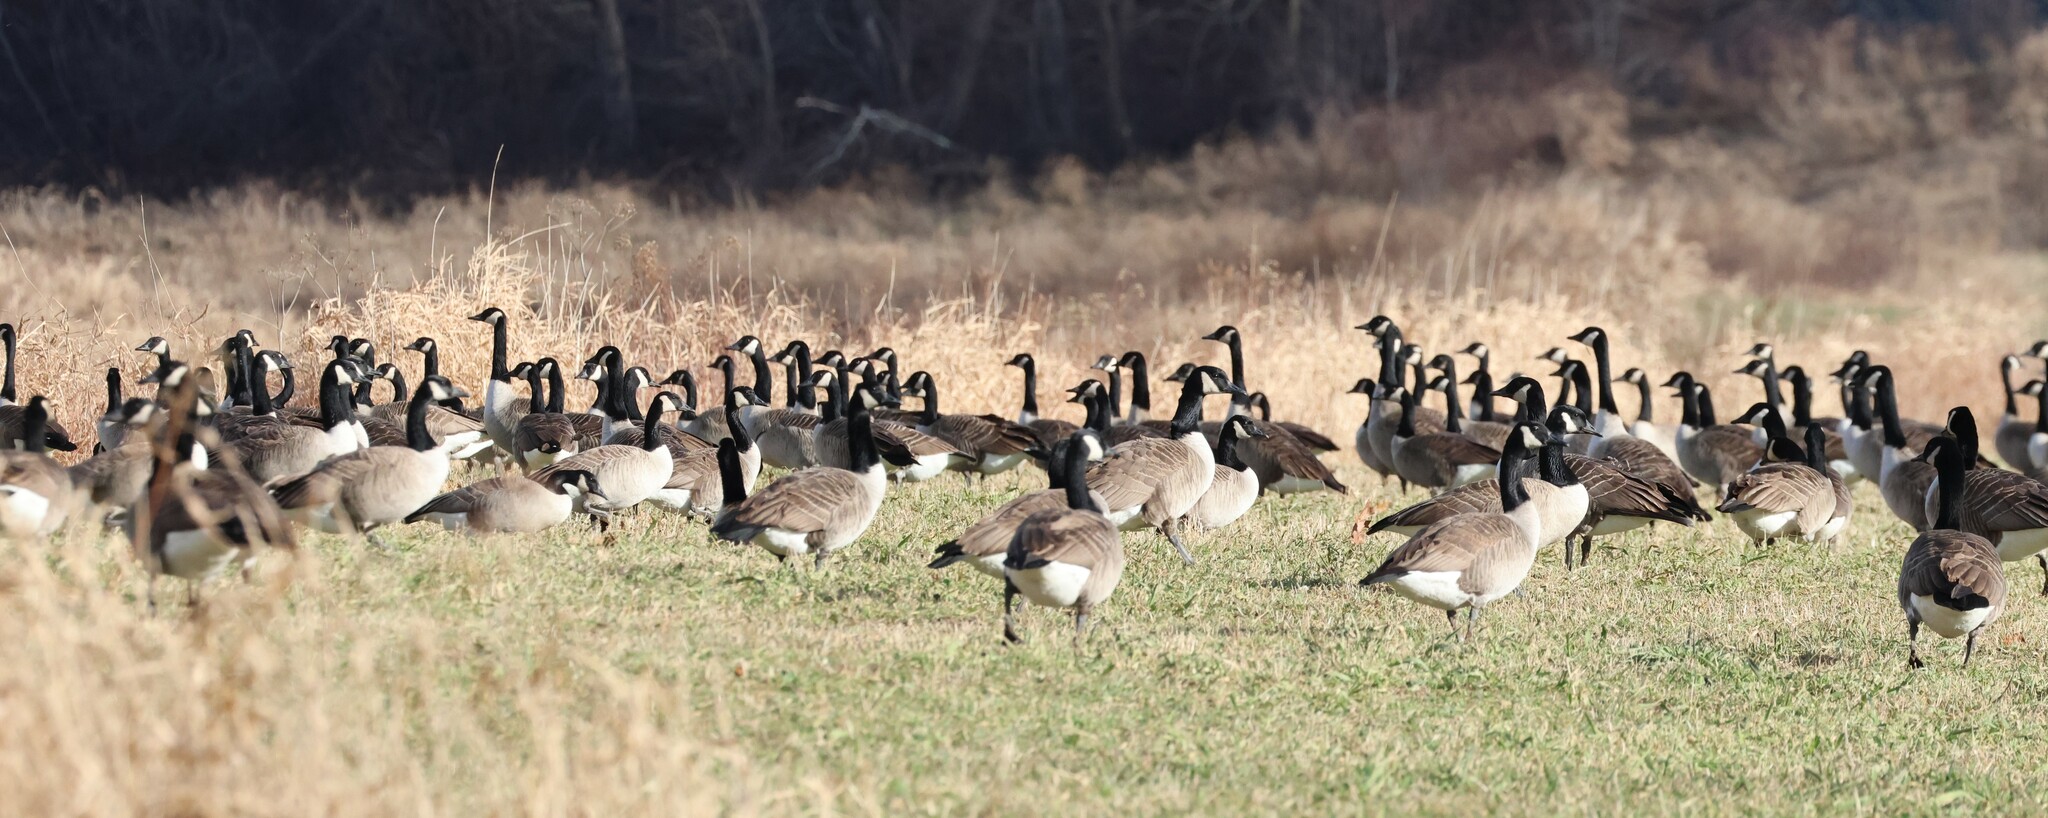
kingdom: Animalia
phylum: Chordata
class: Aves
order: Anseriformes
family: Anatidae
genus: Branta
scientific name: Branta canadensis
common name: Canada goose
